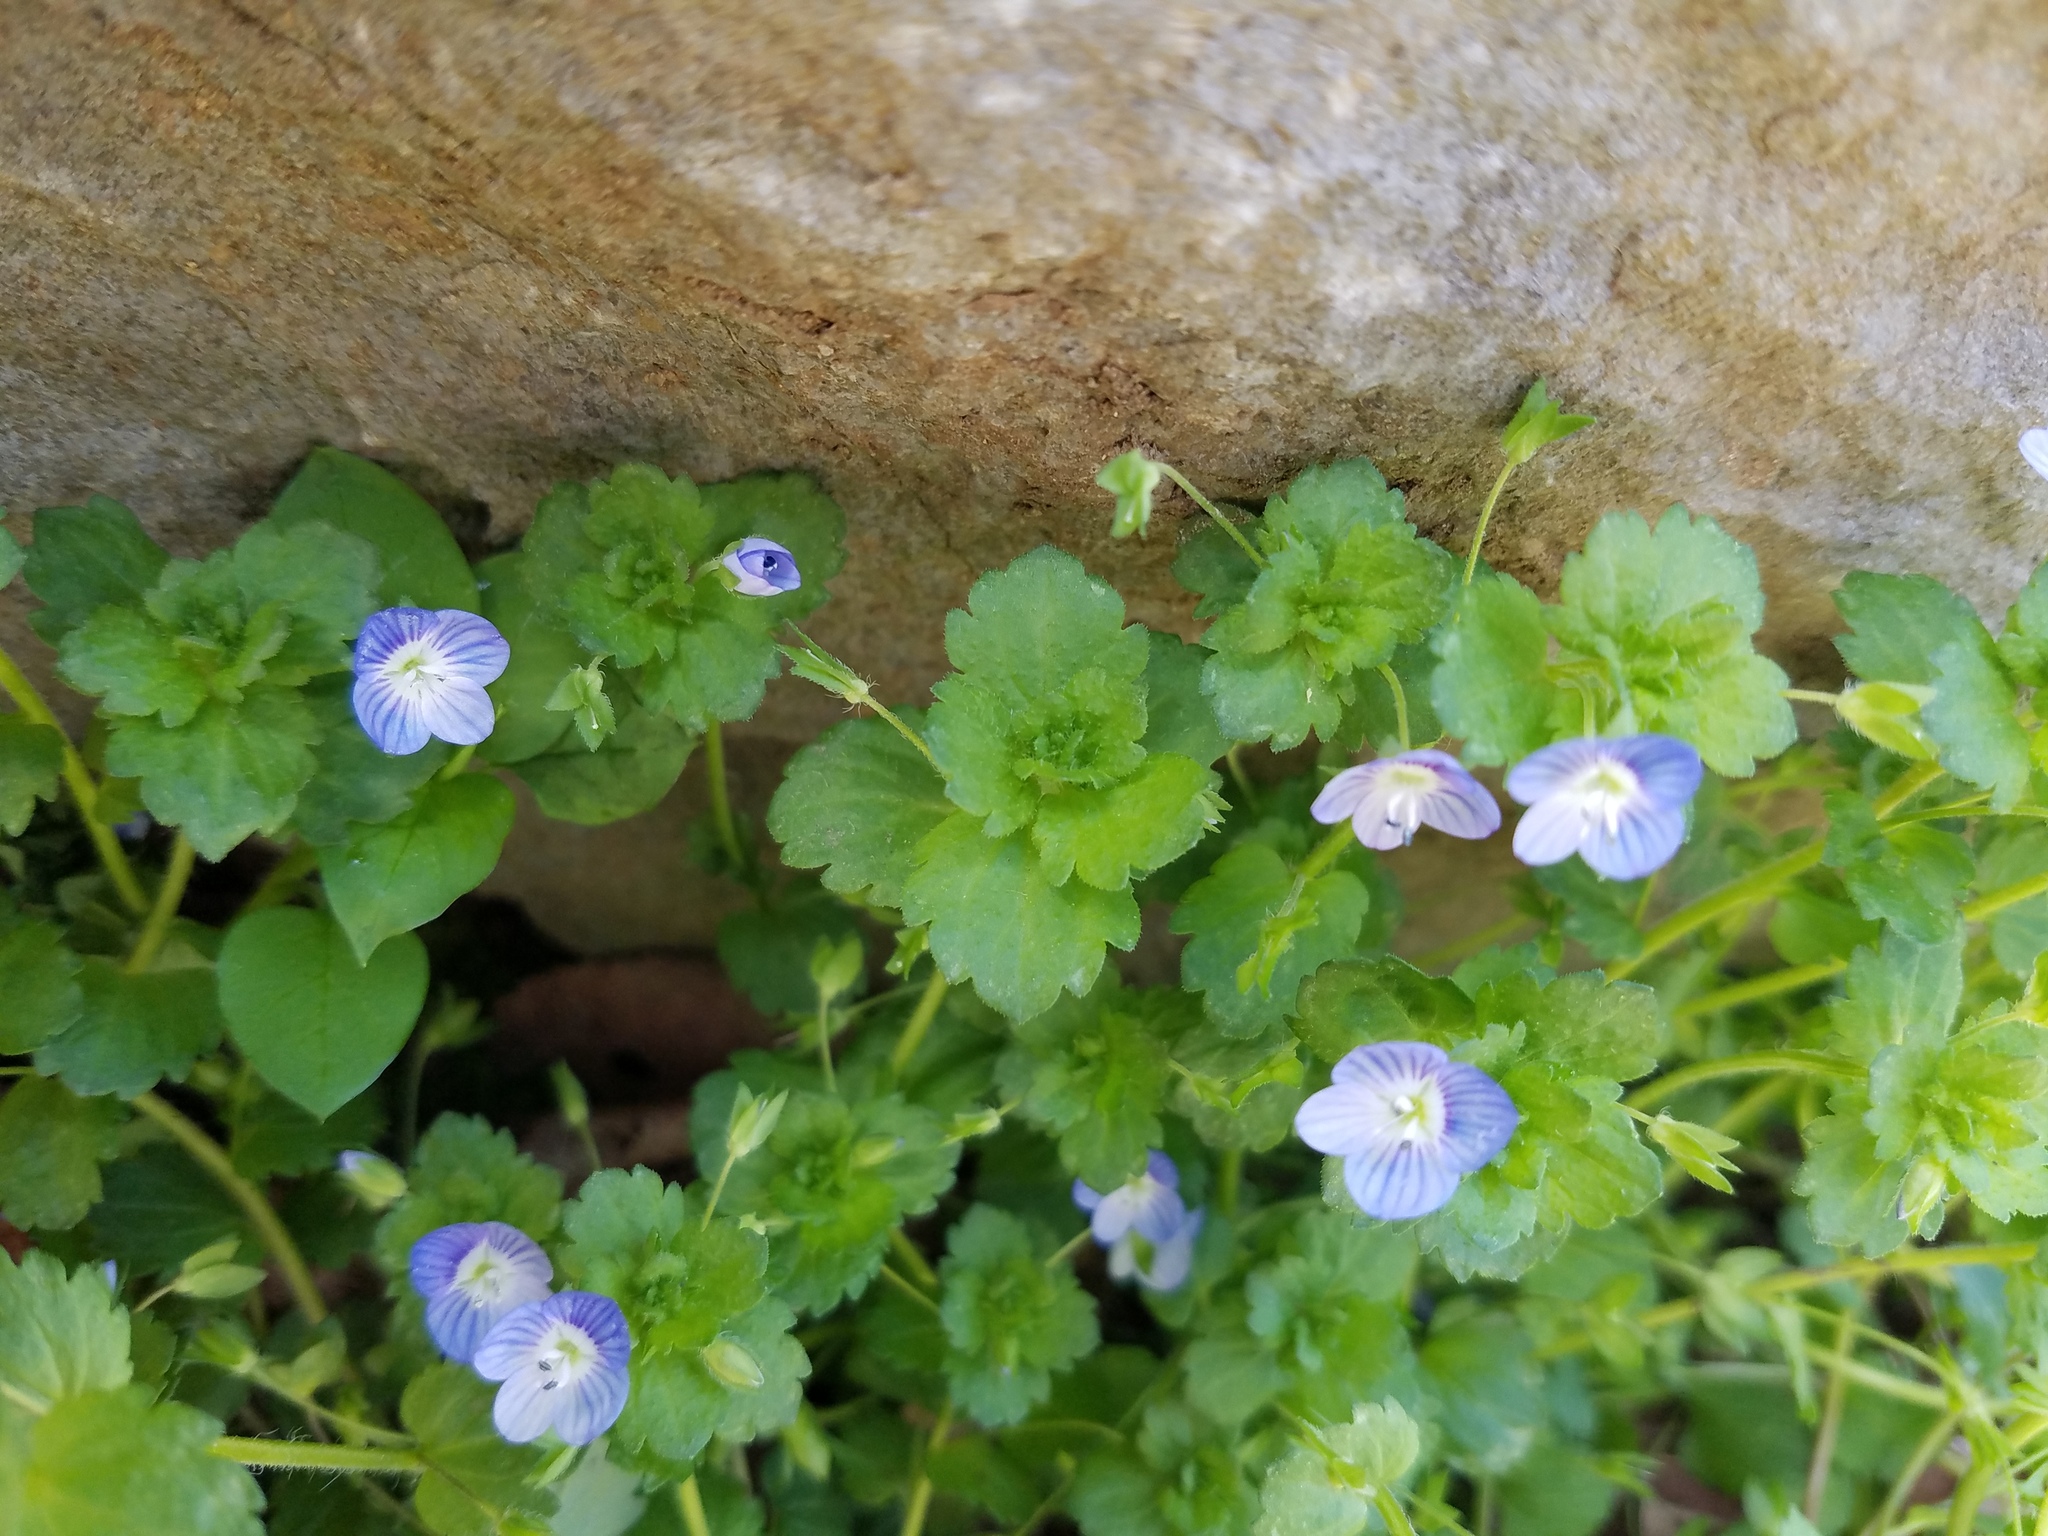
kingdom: Plantae
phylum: Tracheophyta
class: Magnoliopsida
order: Lamiales
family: Plantaginaceae
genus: Veronica
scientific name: Veronica persica
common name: Common field-speedwell
